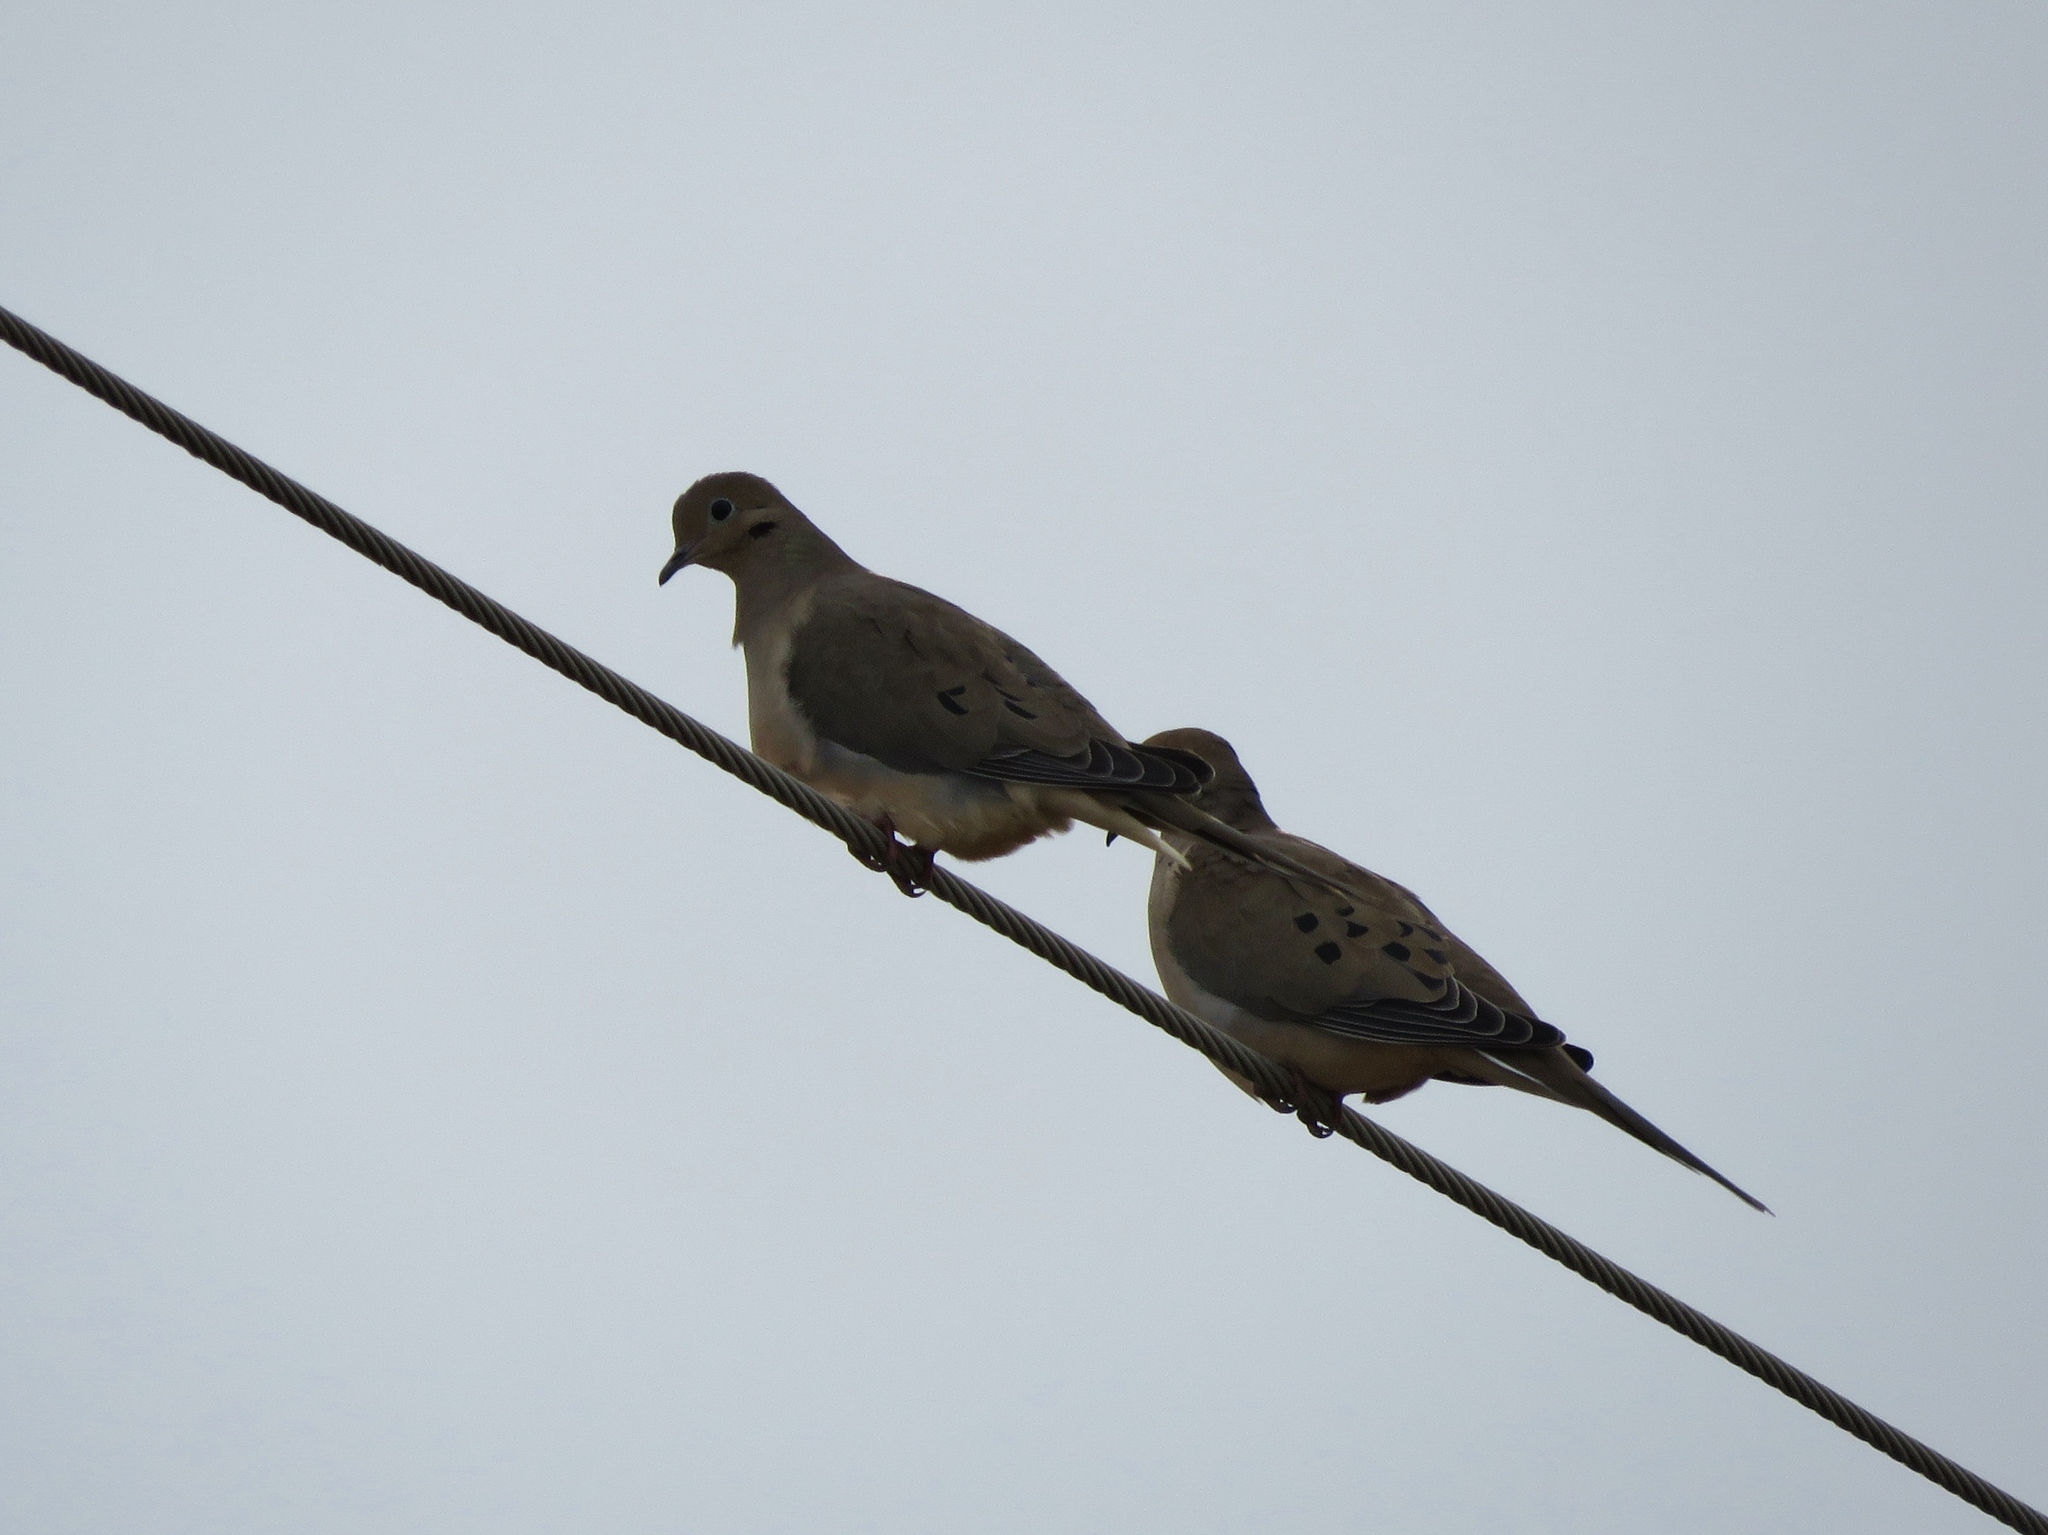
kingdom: Animalia
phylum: Chordata
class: Aves
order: Columbiformes
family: Columbidae
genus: Zenaida
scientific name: Zenaida macroura
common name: Mourning dove
